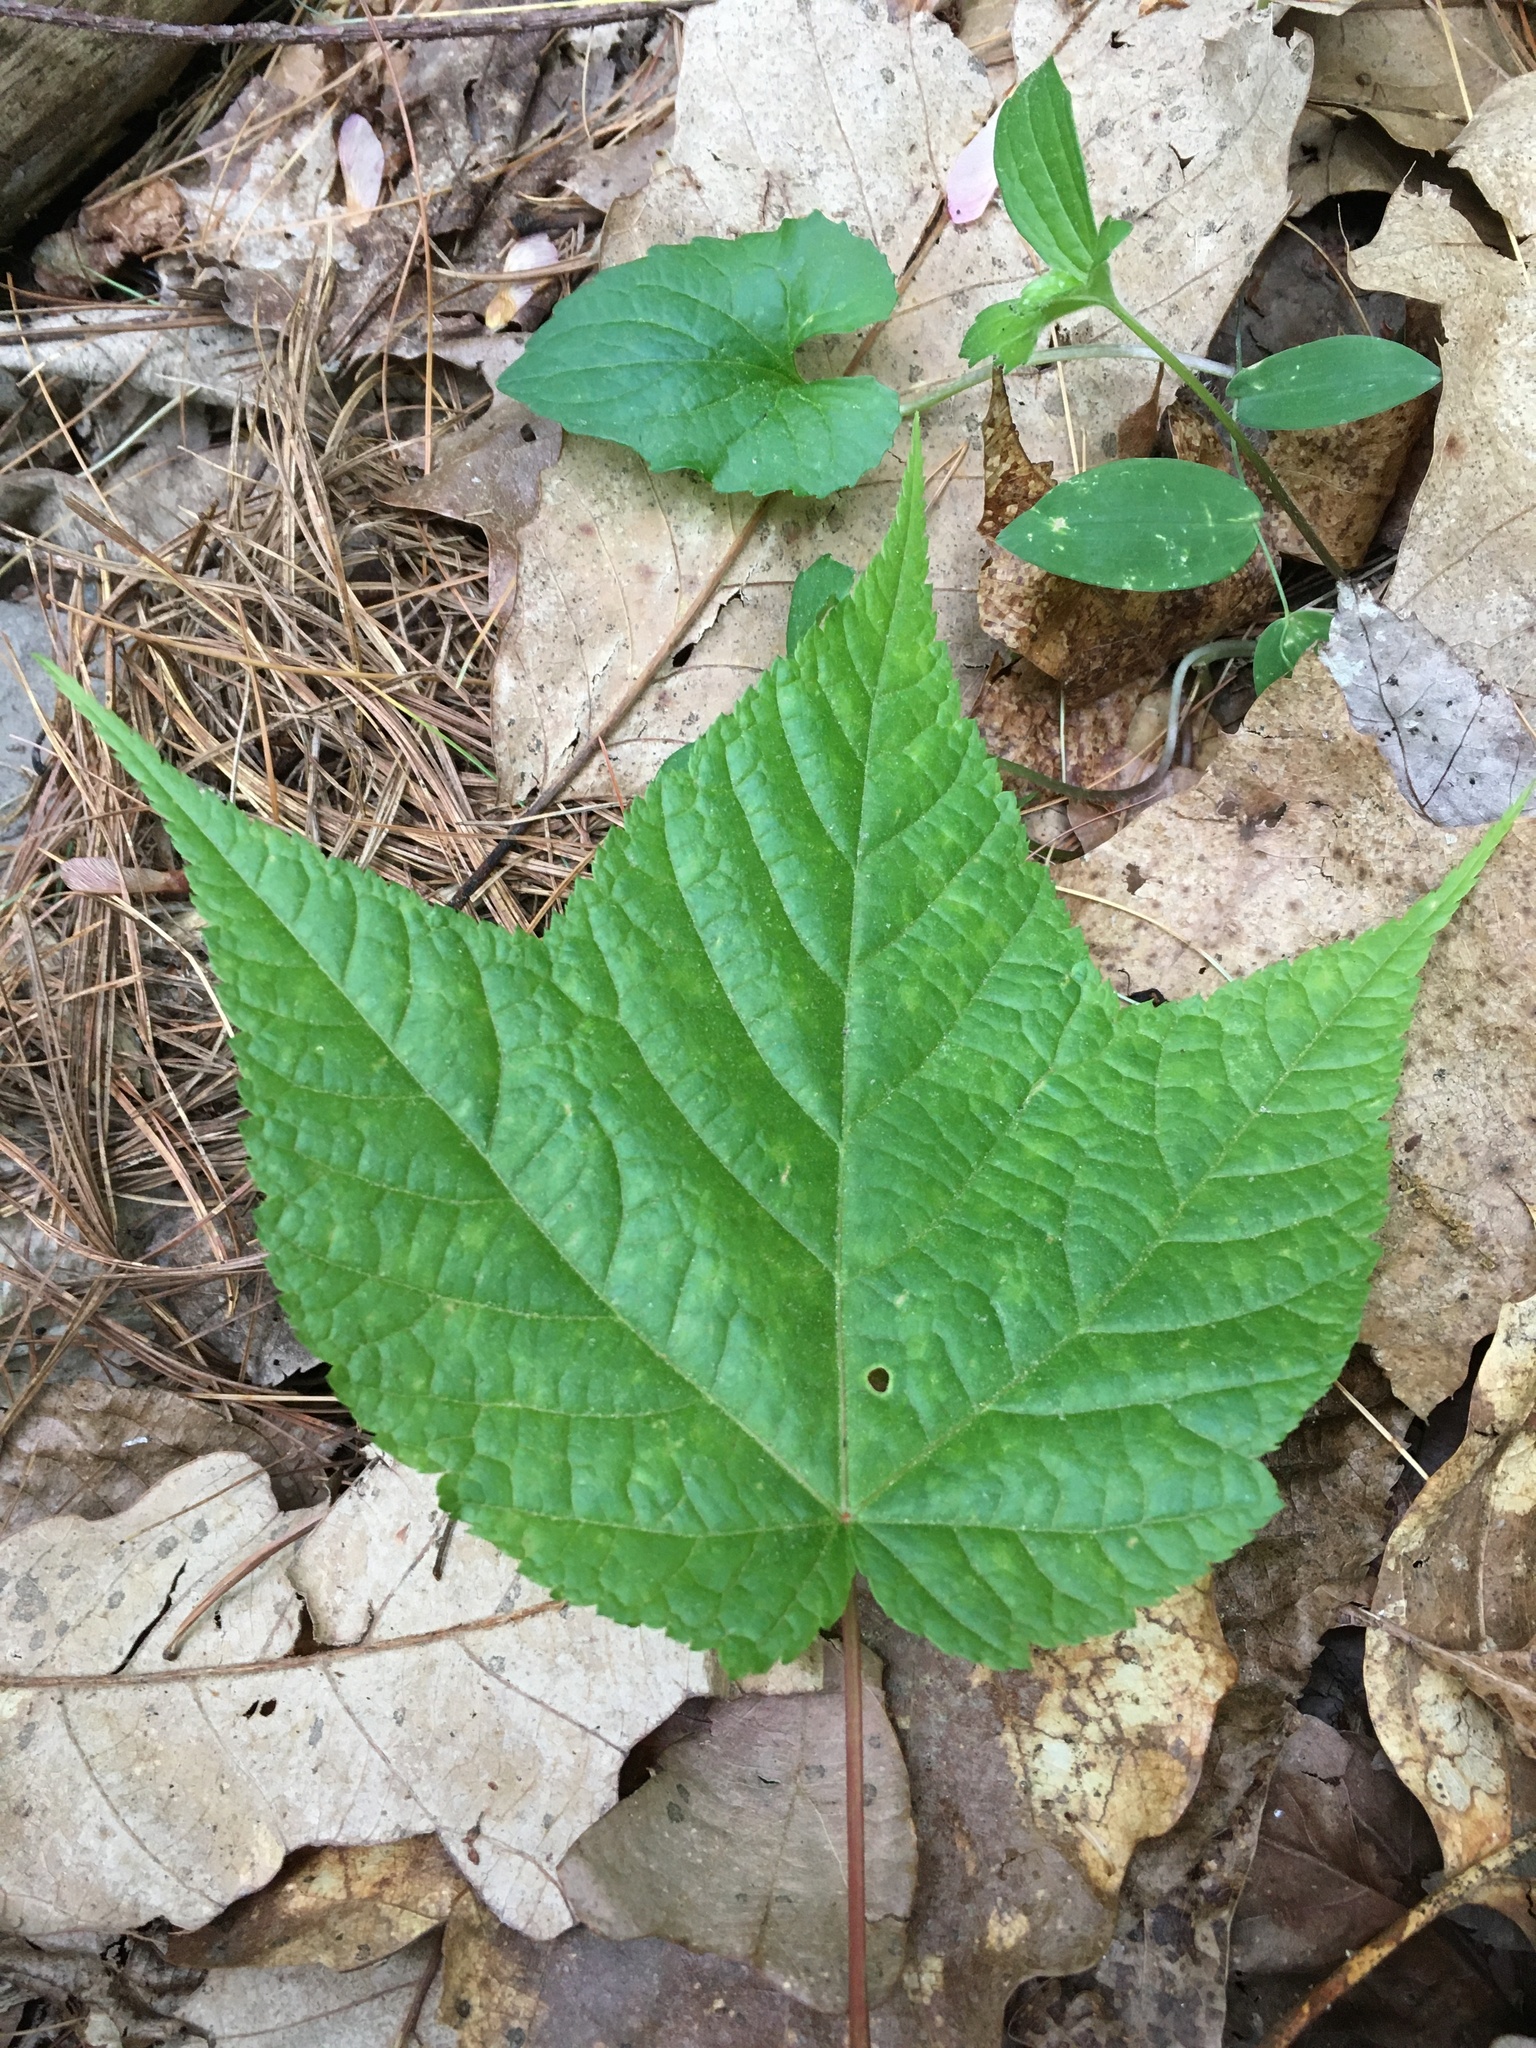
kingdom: Plantae
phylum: Tracheophyta
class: Magnoliopsida
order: Sapindales
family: Sapindaceae
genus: Acer
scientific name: Acer pensylvanicum
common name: Moosewood
